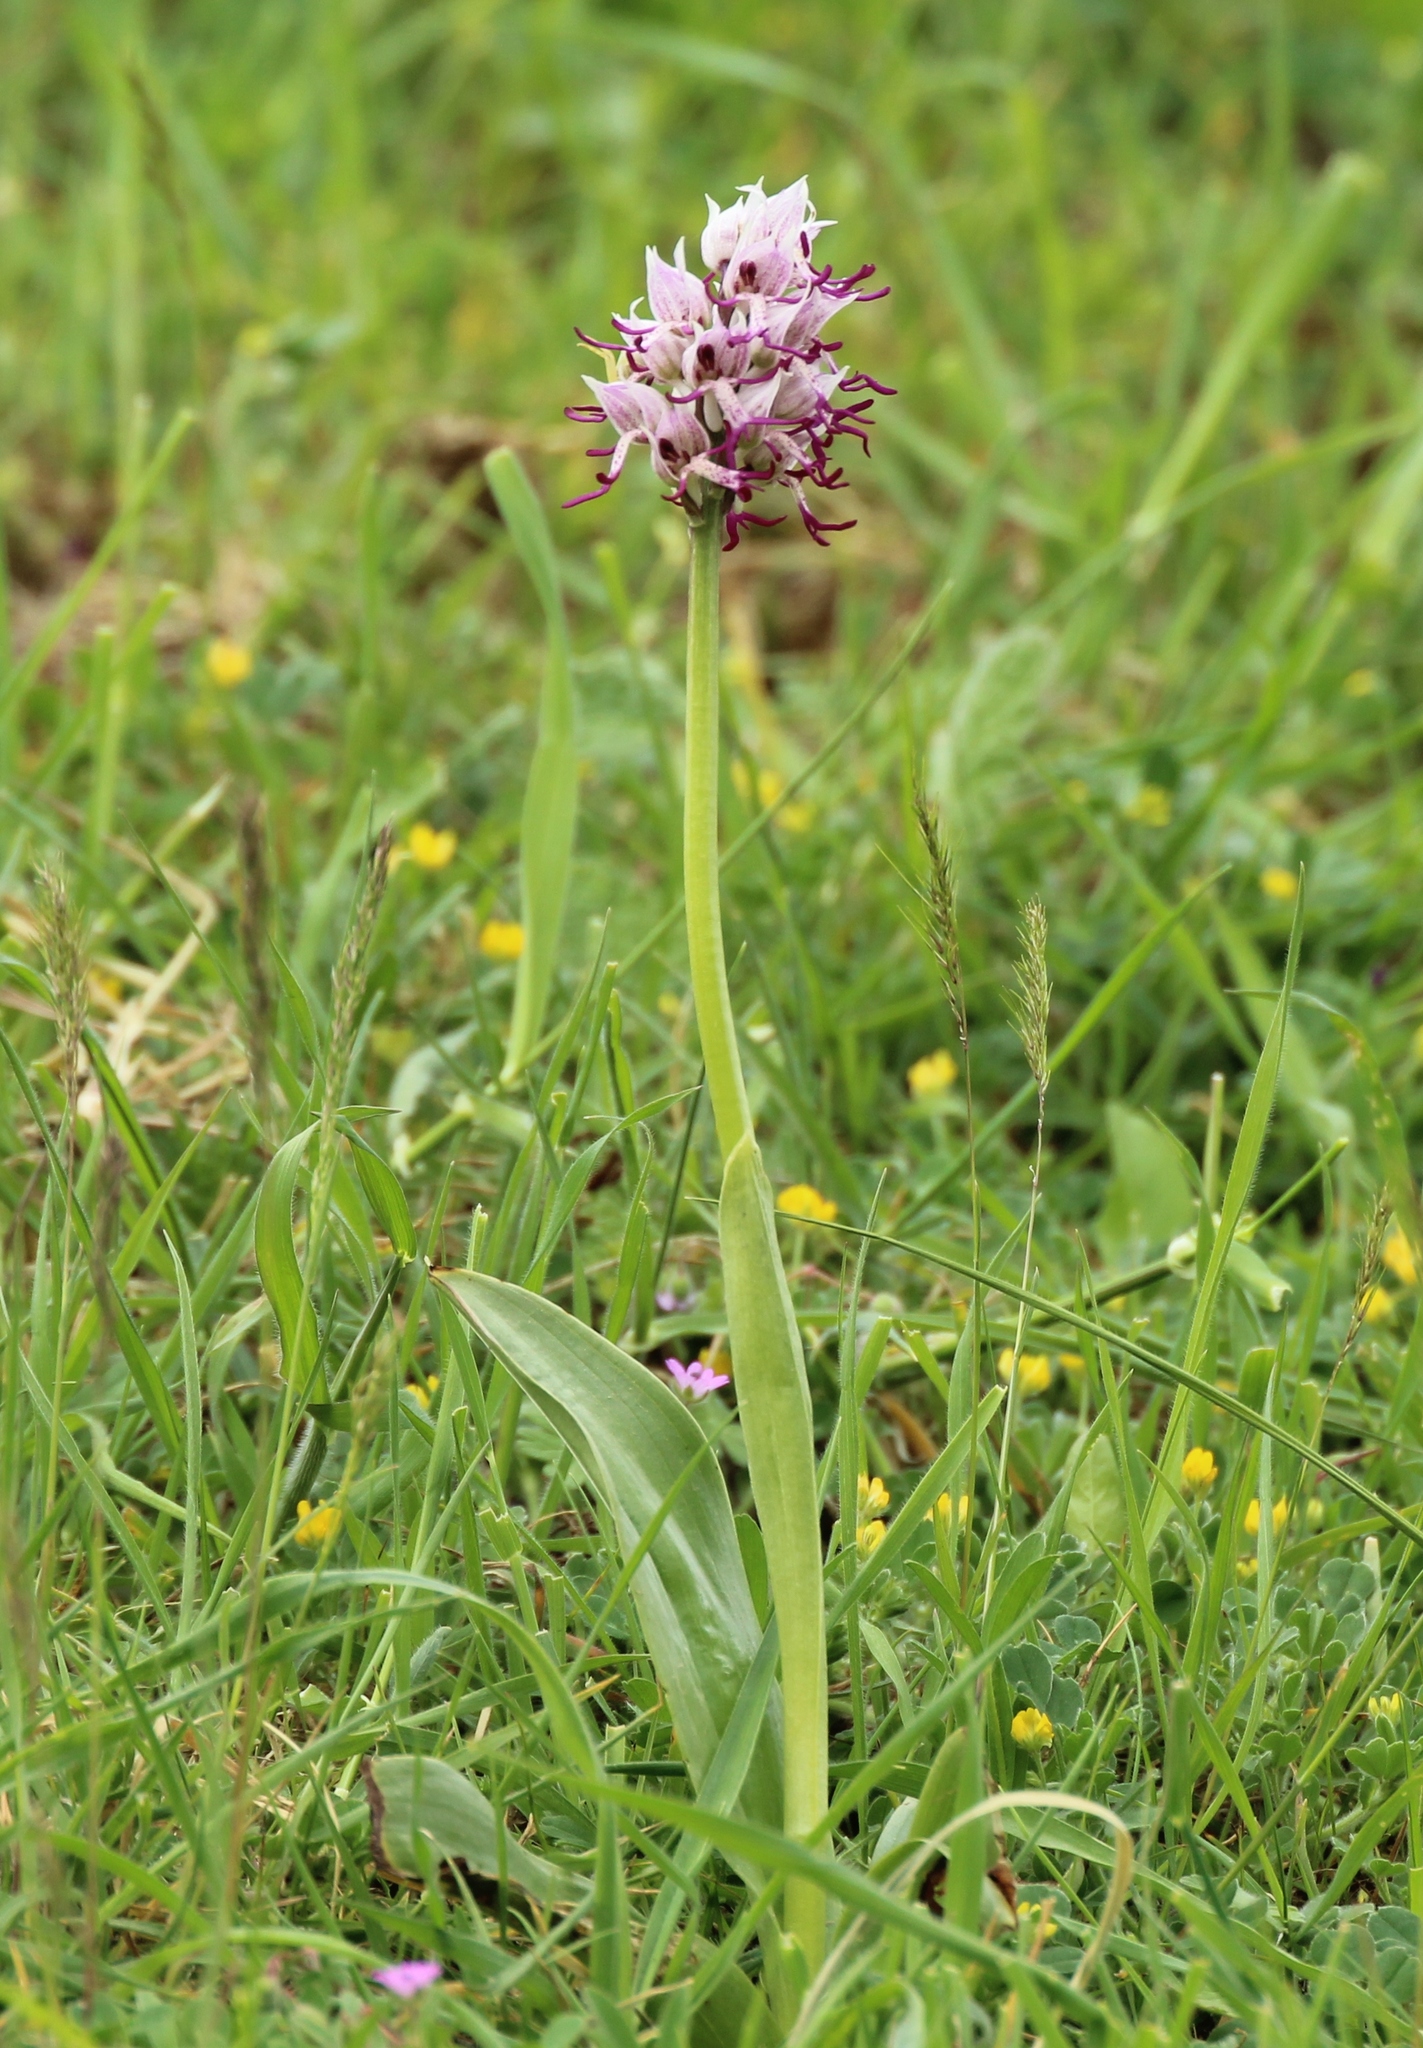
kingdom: Plantae
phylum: Tracheophyta
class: Liliopsida
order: Asparagales
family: Orchidaceae
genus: Orchis
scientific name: Orchis simia
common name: Monkey orchid
